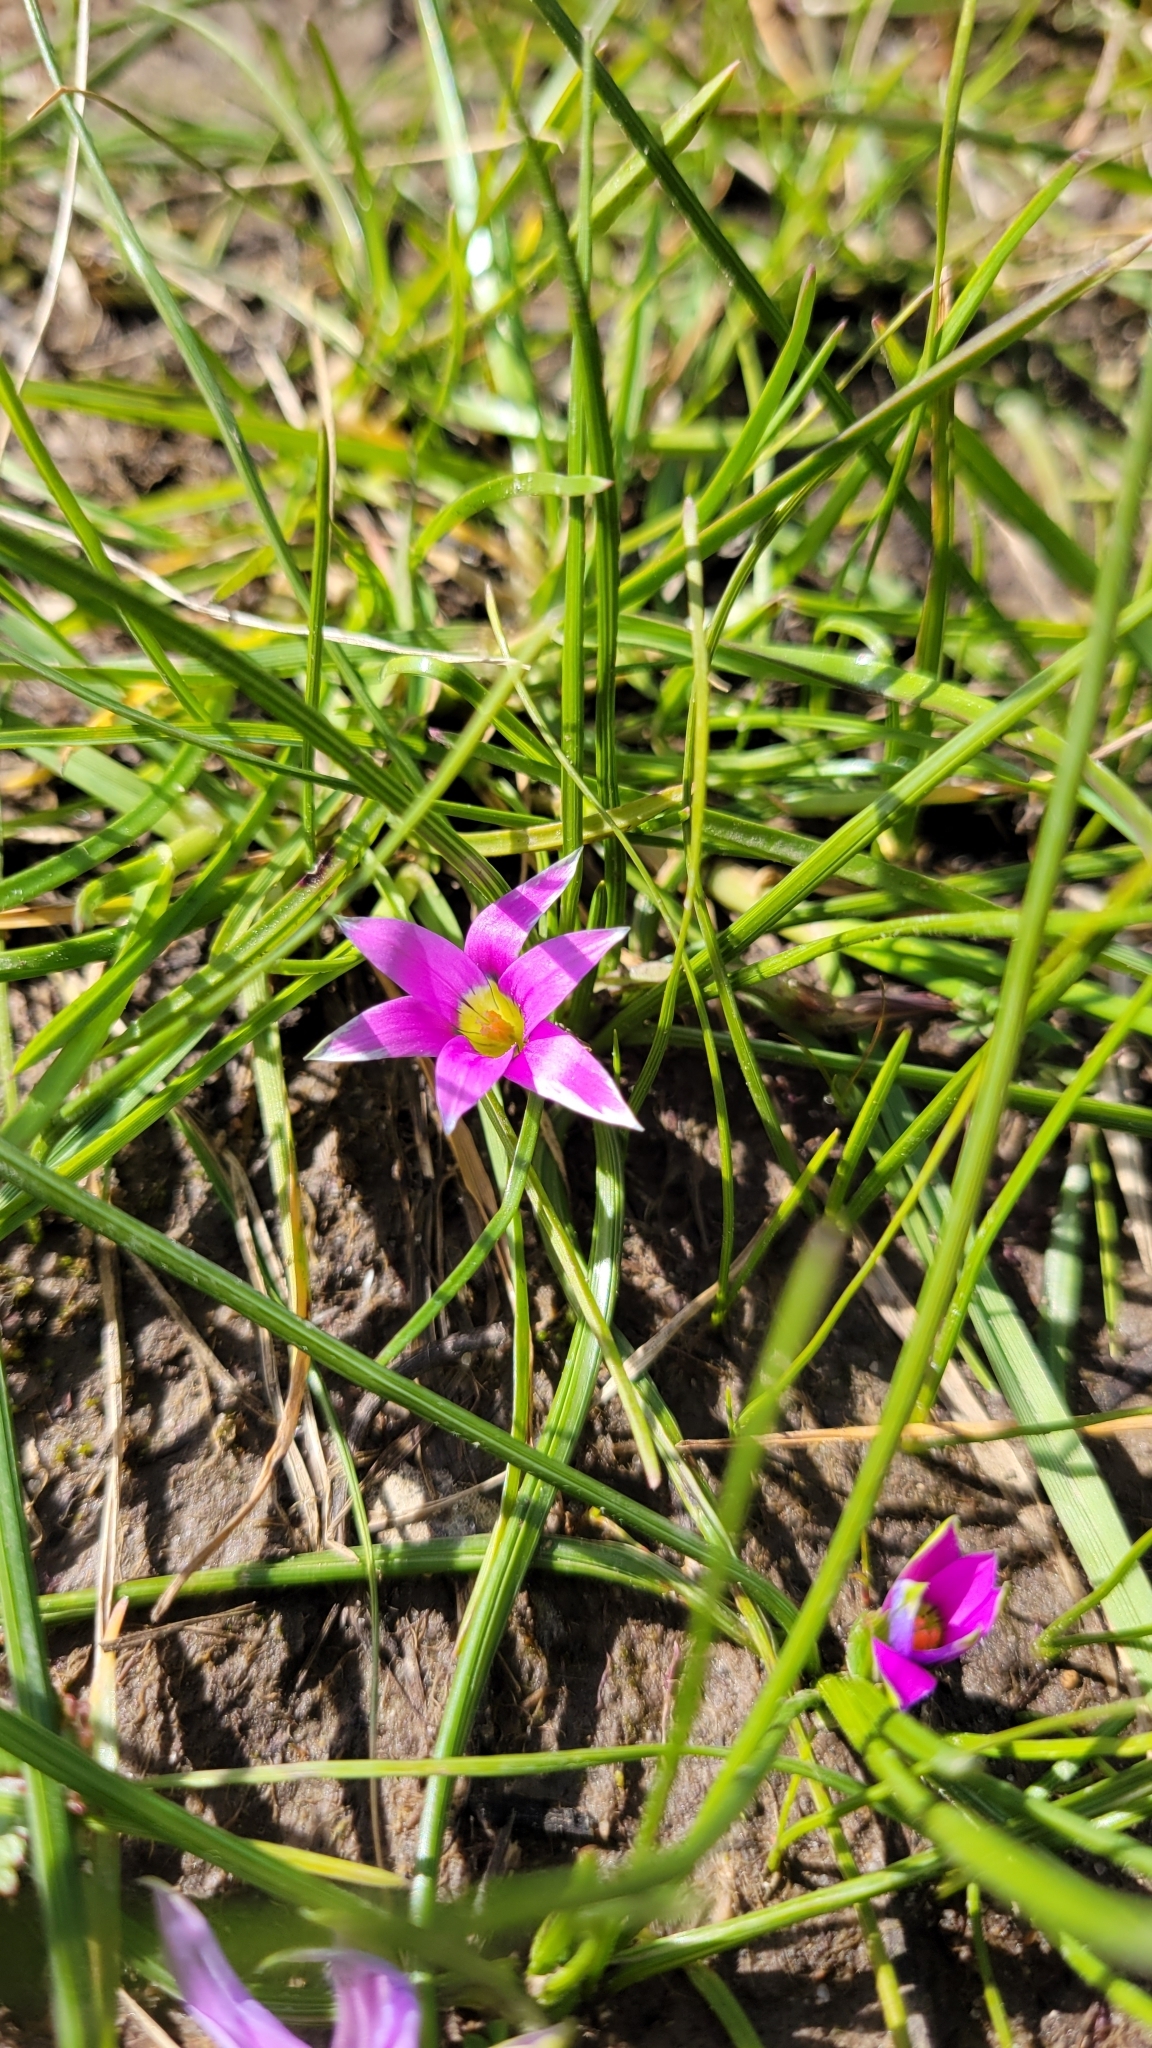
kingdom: Plantae
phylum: Tracheophyta
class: Liliopsida
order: Asparagales
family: Iridaceae
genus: Romulea
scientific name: Romulea rosea
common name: Oniongrass
